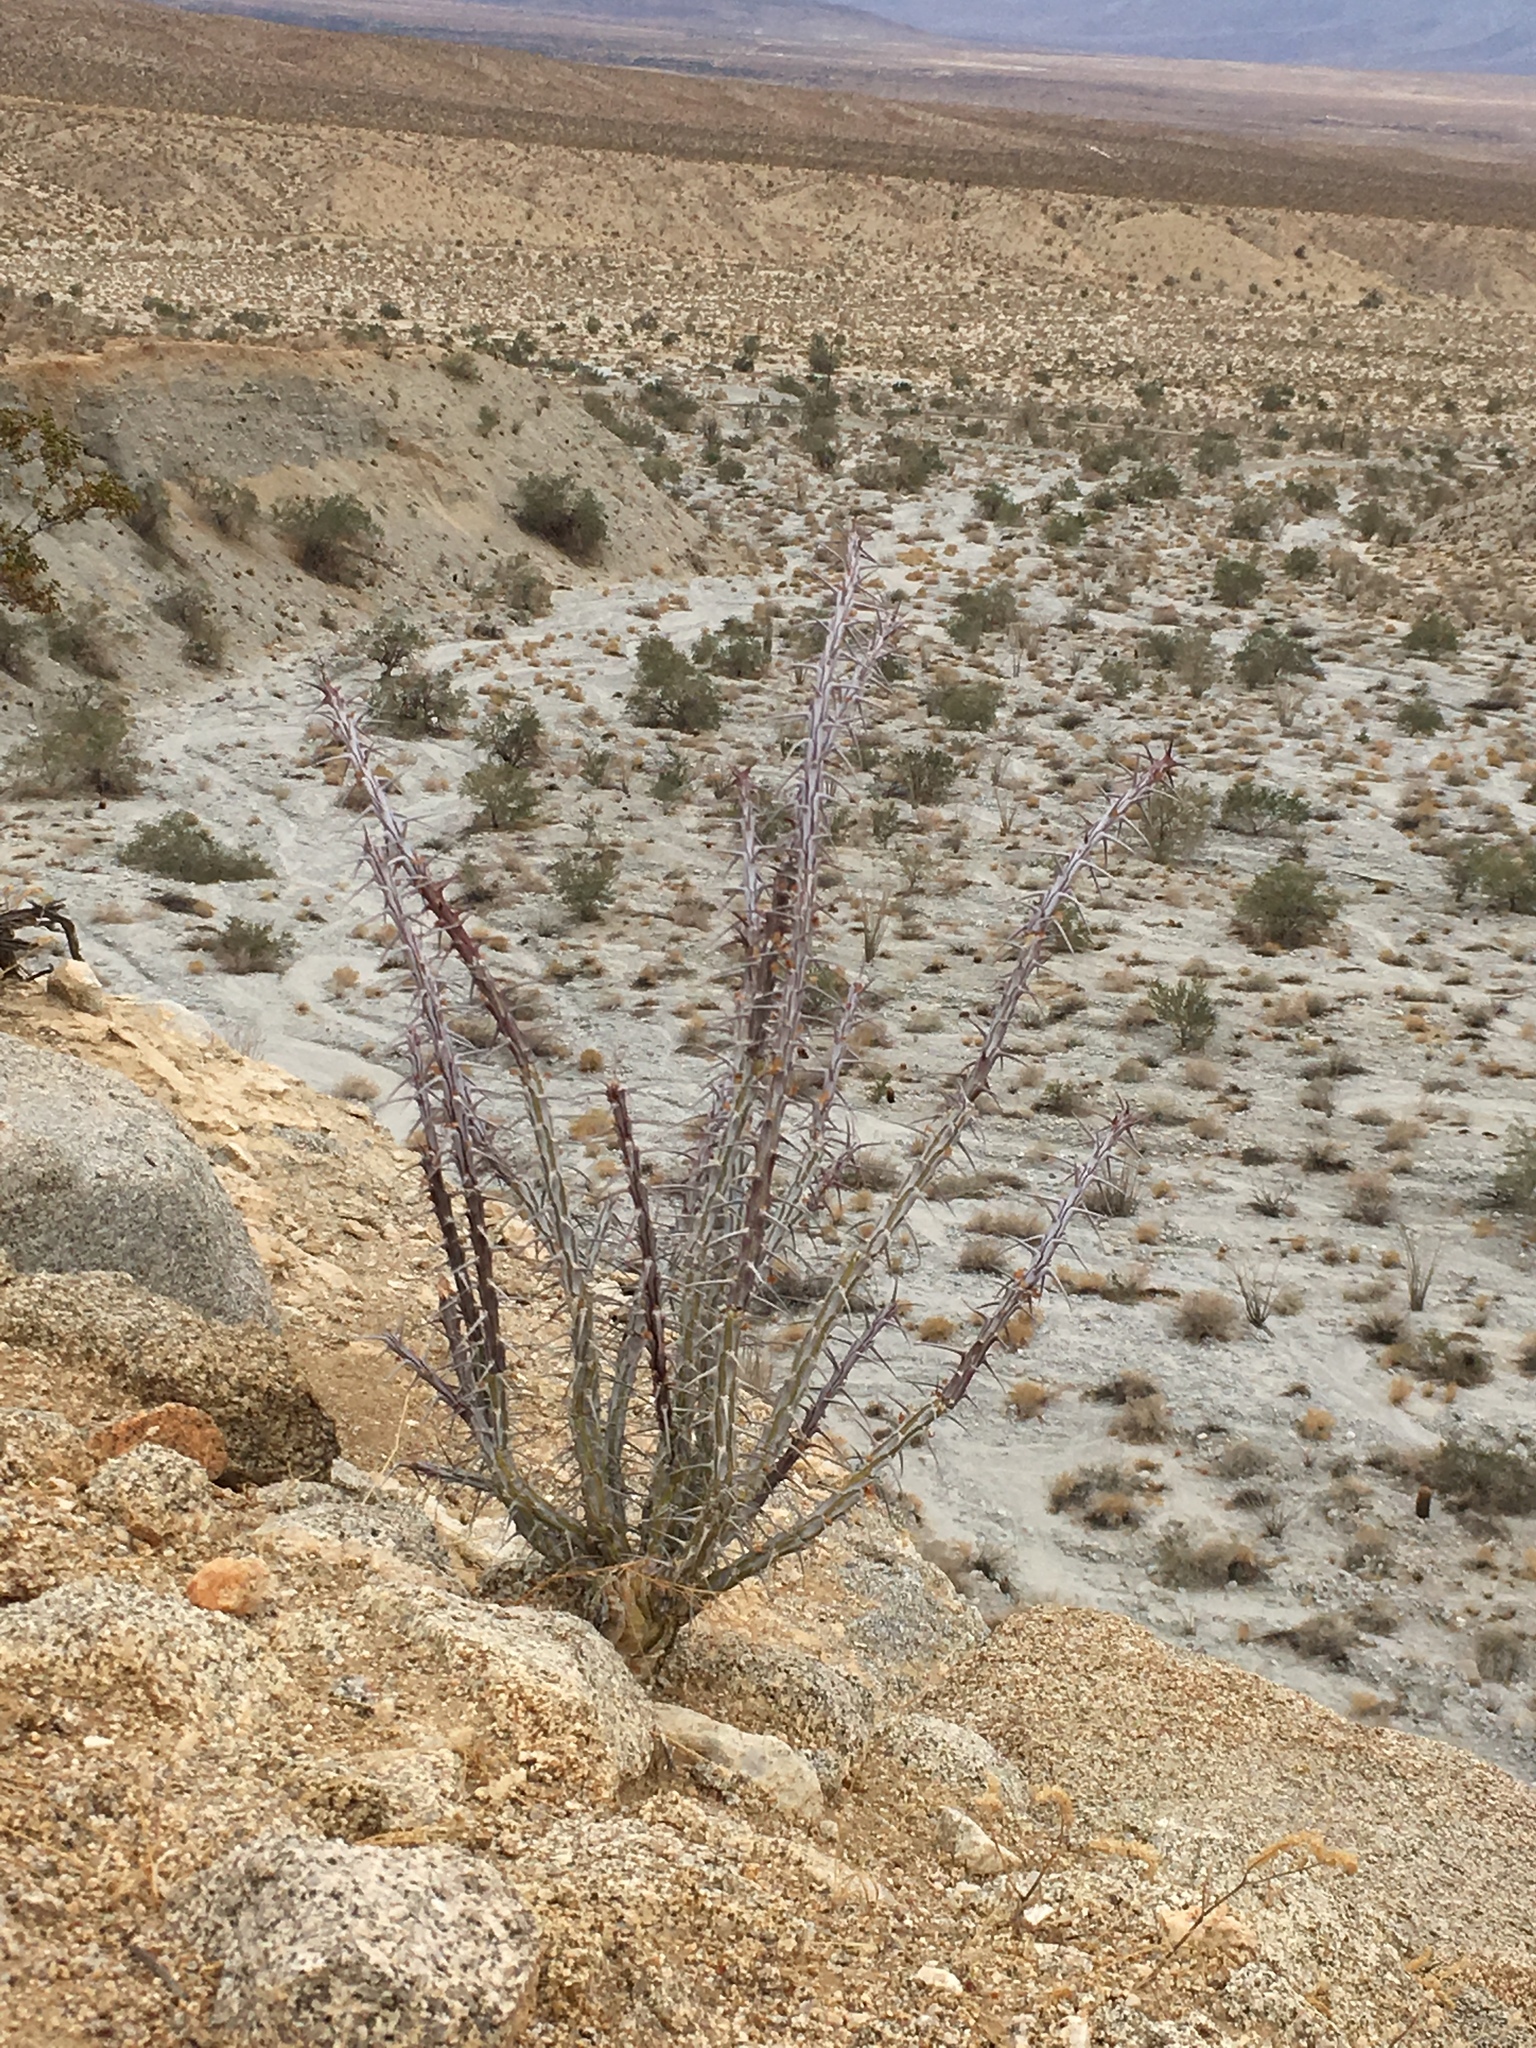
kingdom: Plantae
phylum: Tracheophyta
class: Magnoliopsida
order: Ericales
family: Fouquieriaceae
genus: Fouquieria
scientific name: Fouquieria splendens
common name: Vine-cactus
